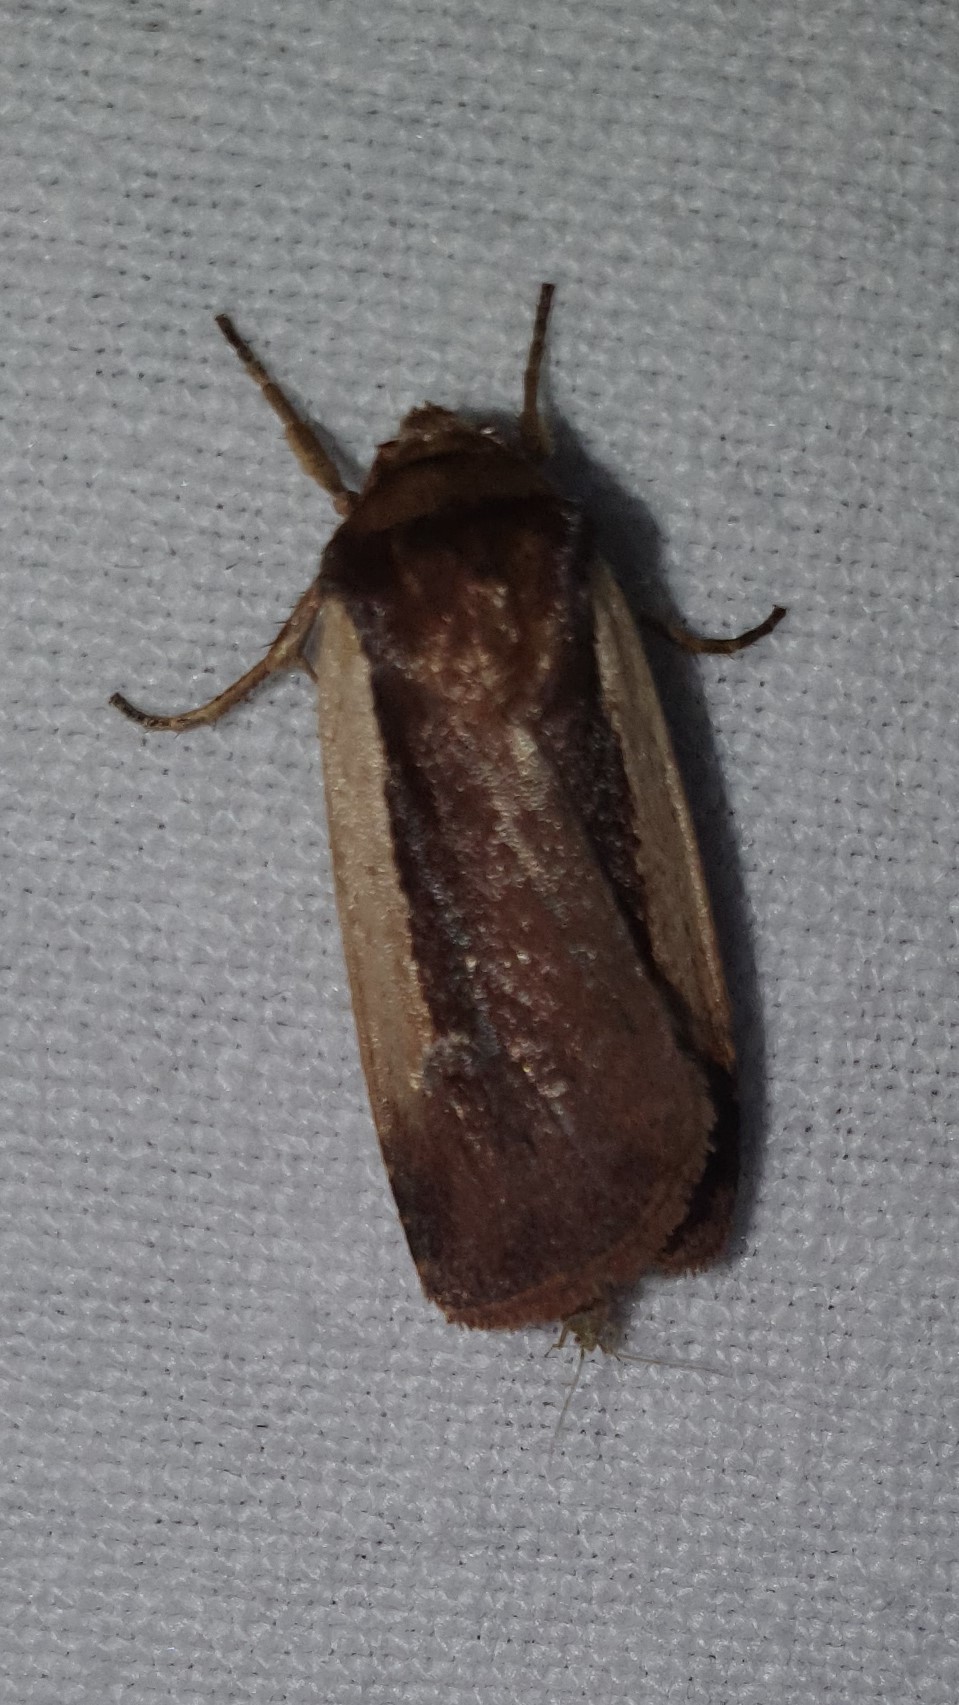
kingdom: Animalia
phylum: Arthropoda
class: Insecta
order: Lepidoptera
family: Noctuidae
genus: Ochropleura
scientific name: Ochropleura plecta
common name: Flame shoulder
